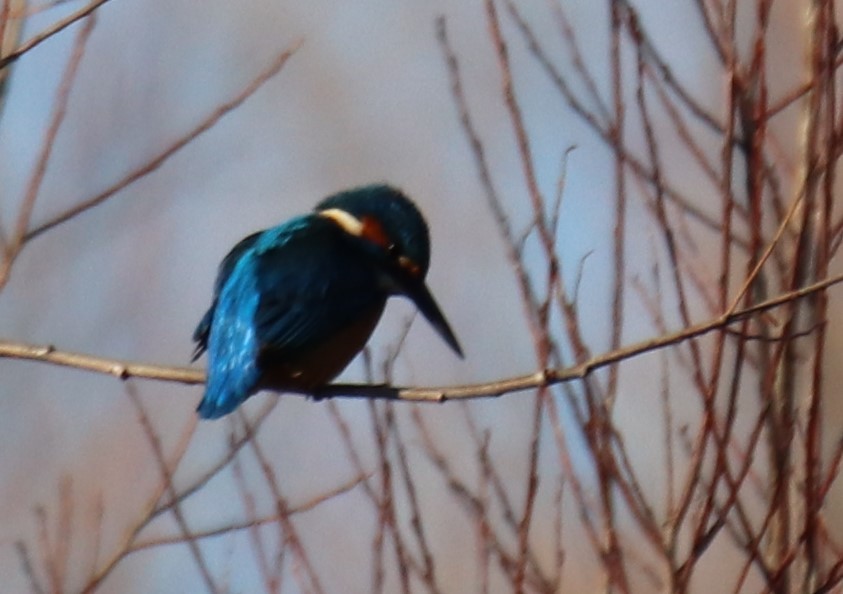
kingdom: Animalia
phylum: Chordata
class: Aves
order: Coraciiformes
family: Alcedinidae
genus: Alcedo
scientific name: Alcedo atthis
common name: Common kingfisher
